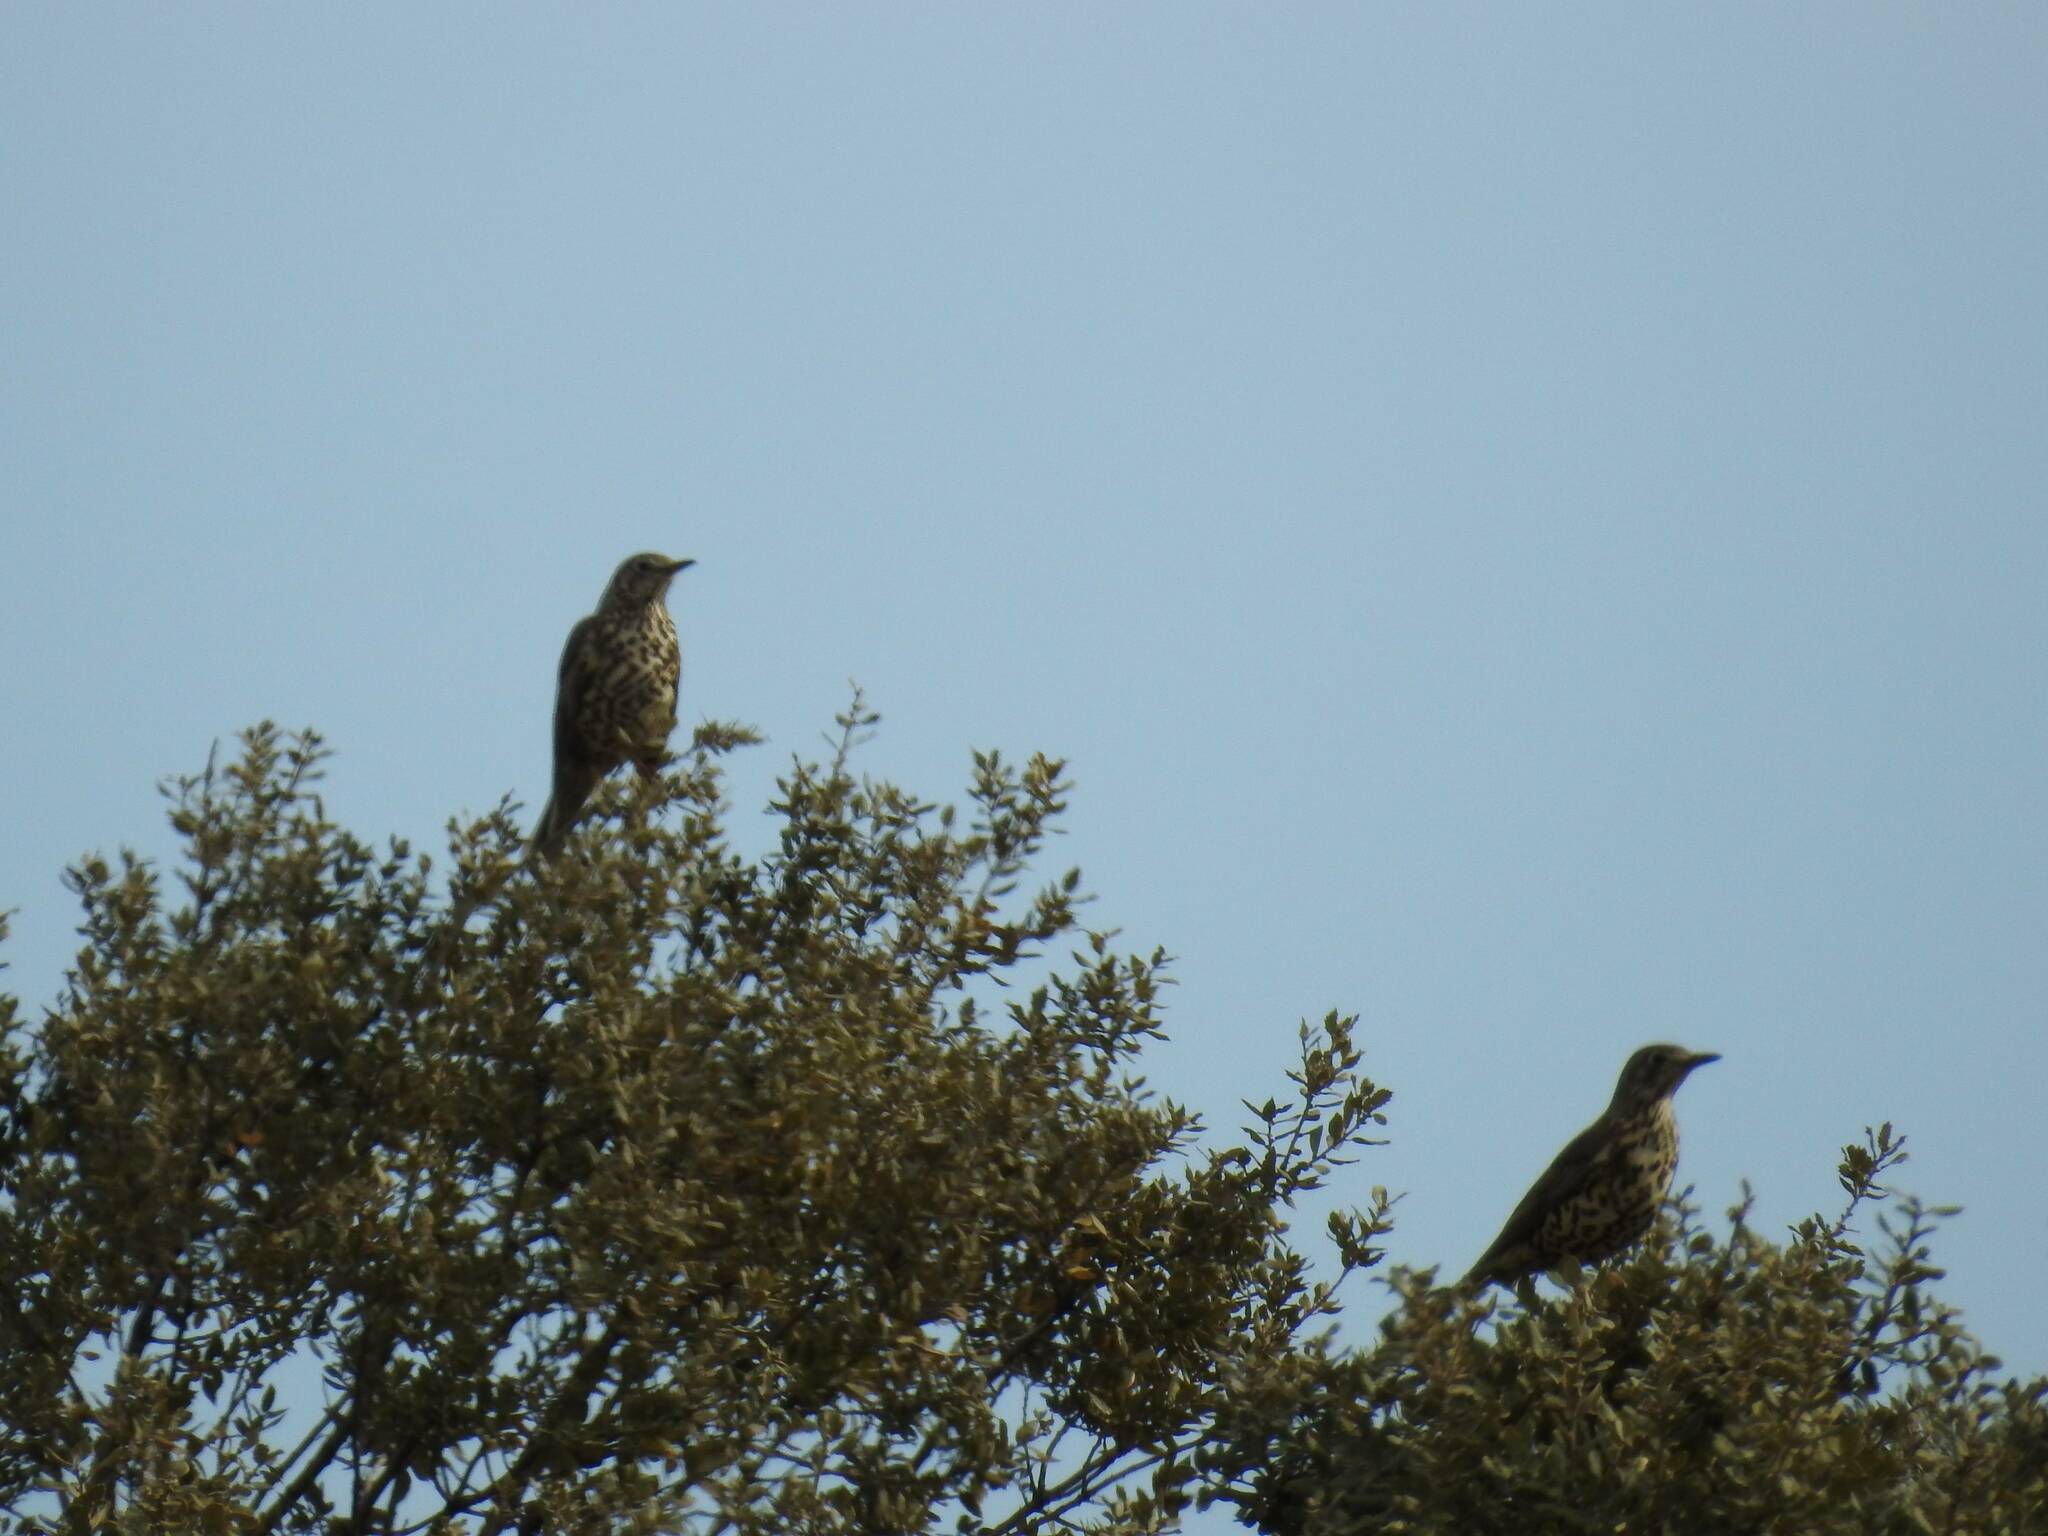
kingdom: Animalia
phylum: Chordata
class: Aves
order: Passeriformes
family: Turdidae
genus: Turdus
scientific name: Turdus viscivorus
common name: Mistle thrush
